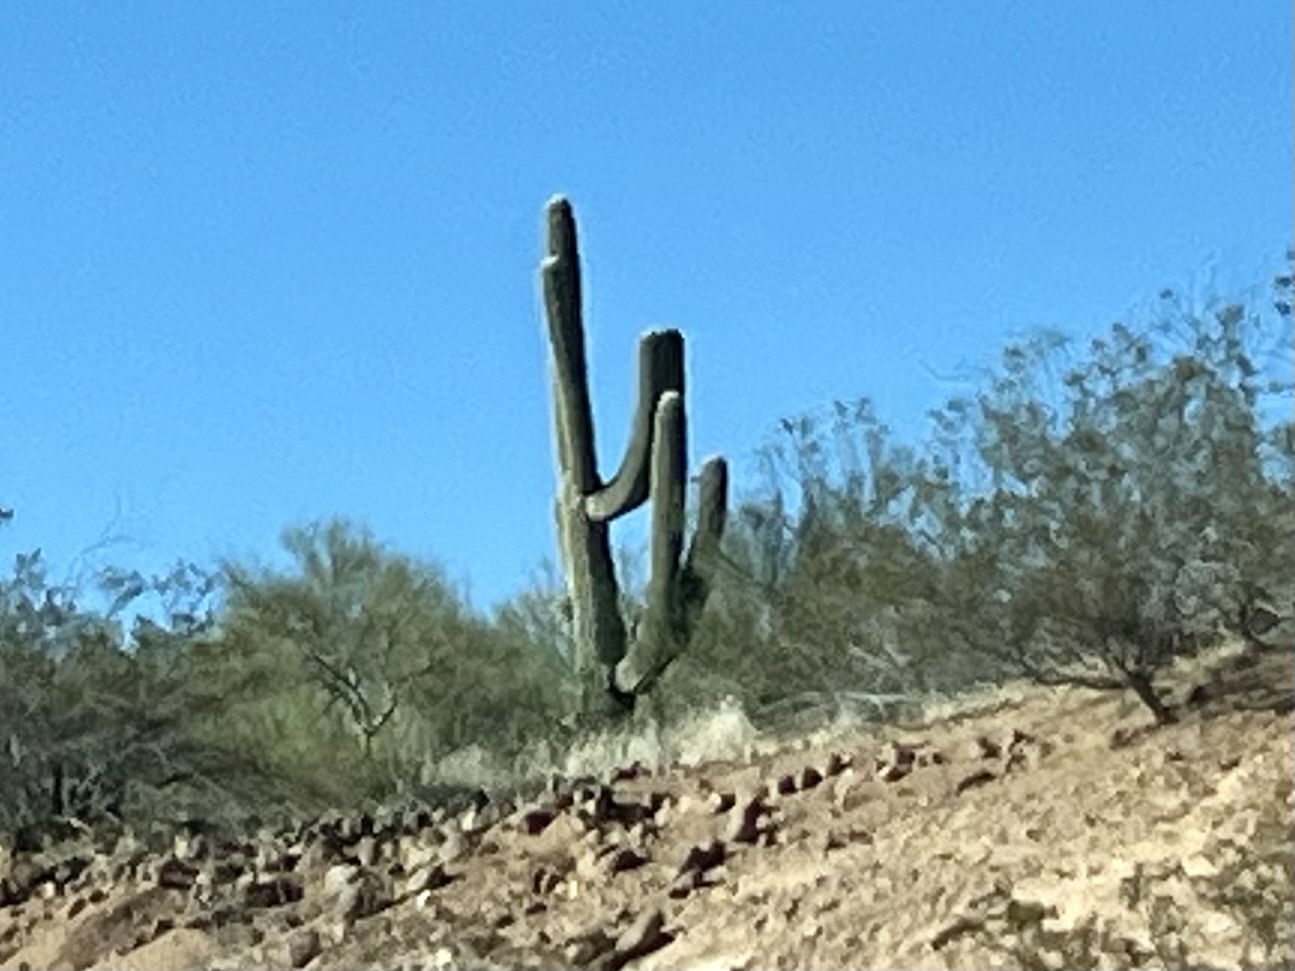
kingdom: Plantae
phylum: Tracheophyta
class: Magnoliopsida
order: Caryophyllales
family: Cactaceae
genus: Carnegiea
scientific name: Carnegiea gigantea
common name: Saguaro
